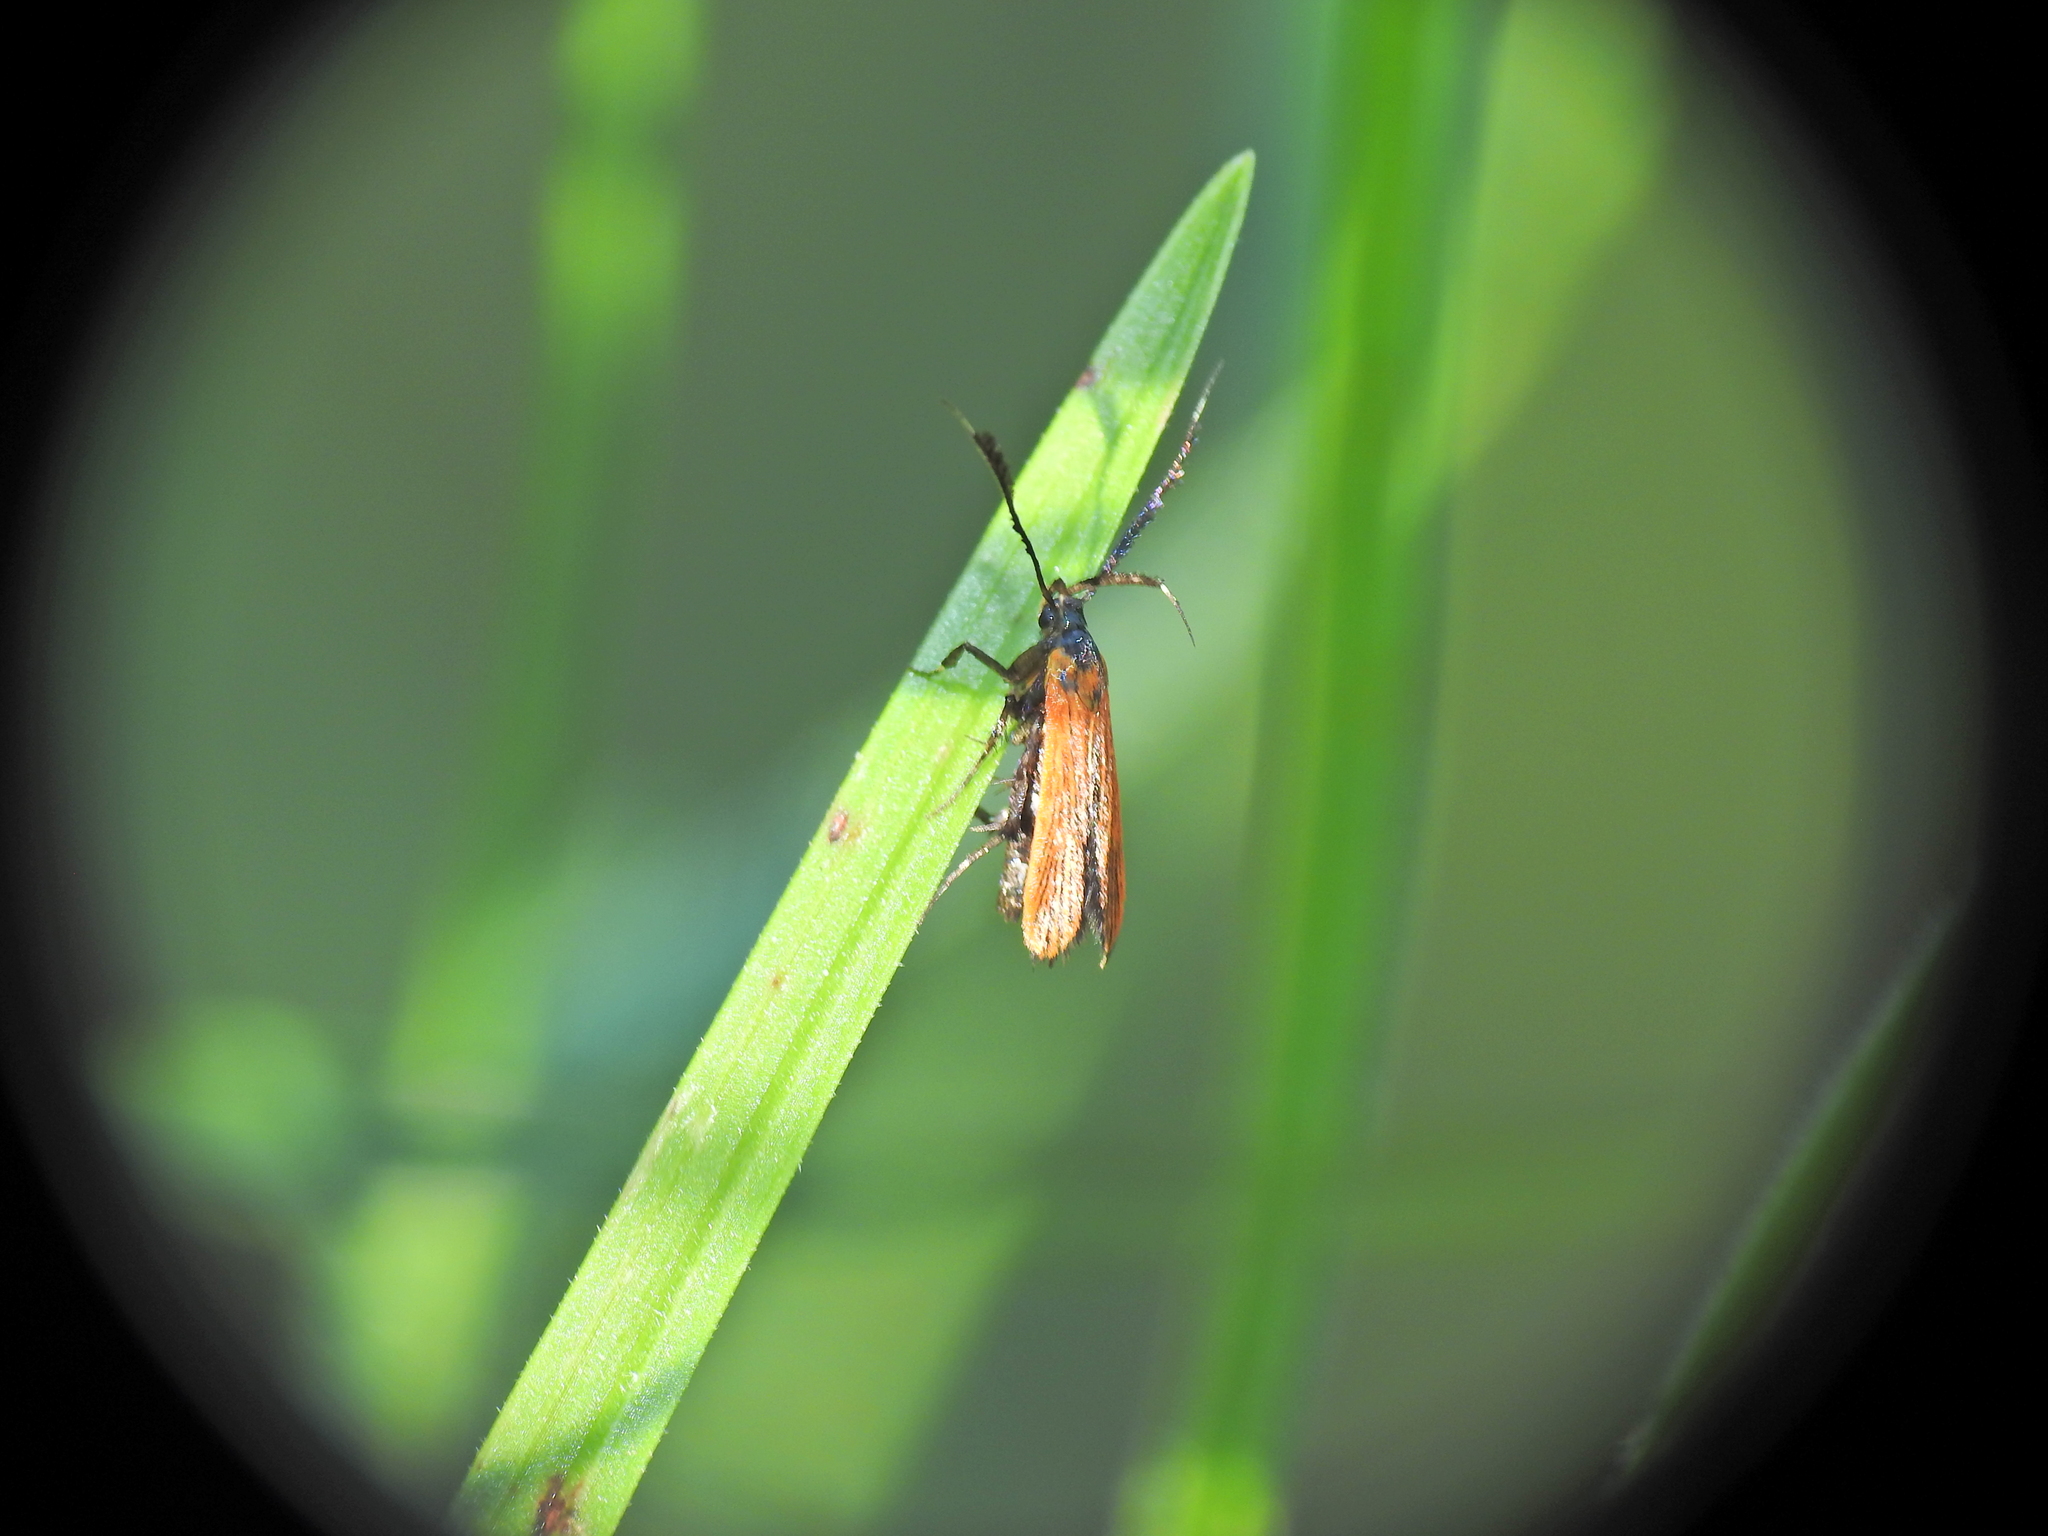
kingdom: Animalia
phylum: Arthropoda
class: Insecta
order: Lepidoptera
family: Stathmopodidae
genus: Snellenia
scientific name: Snellenia lineata
